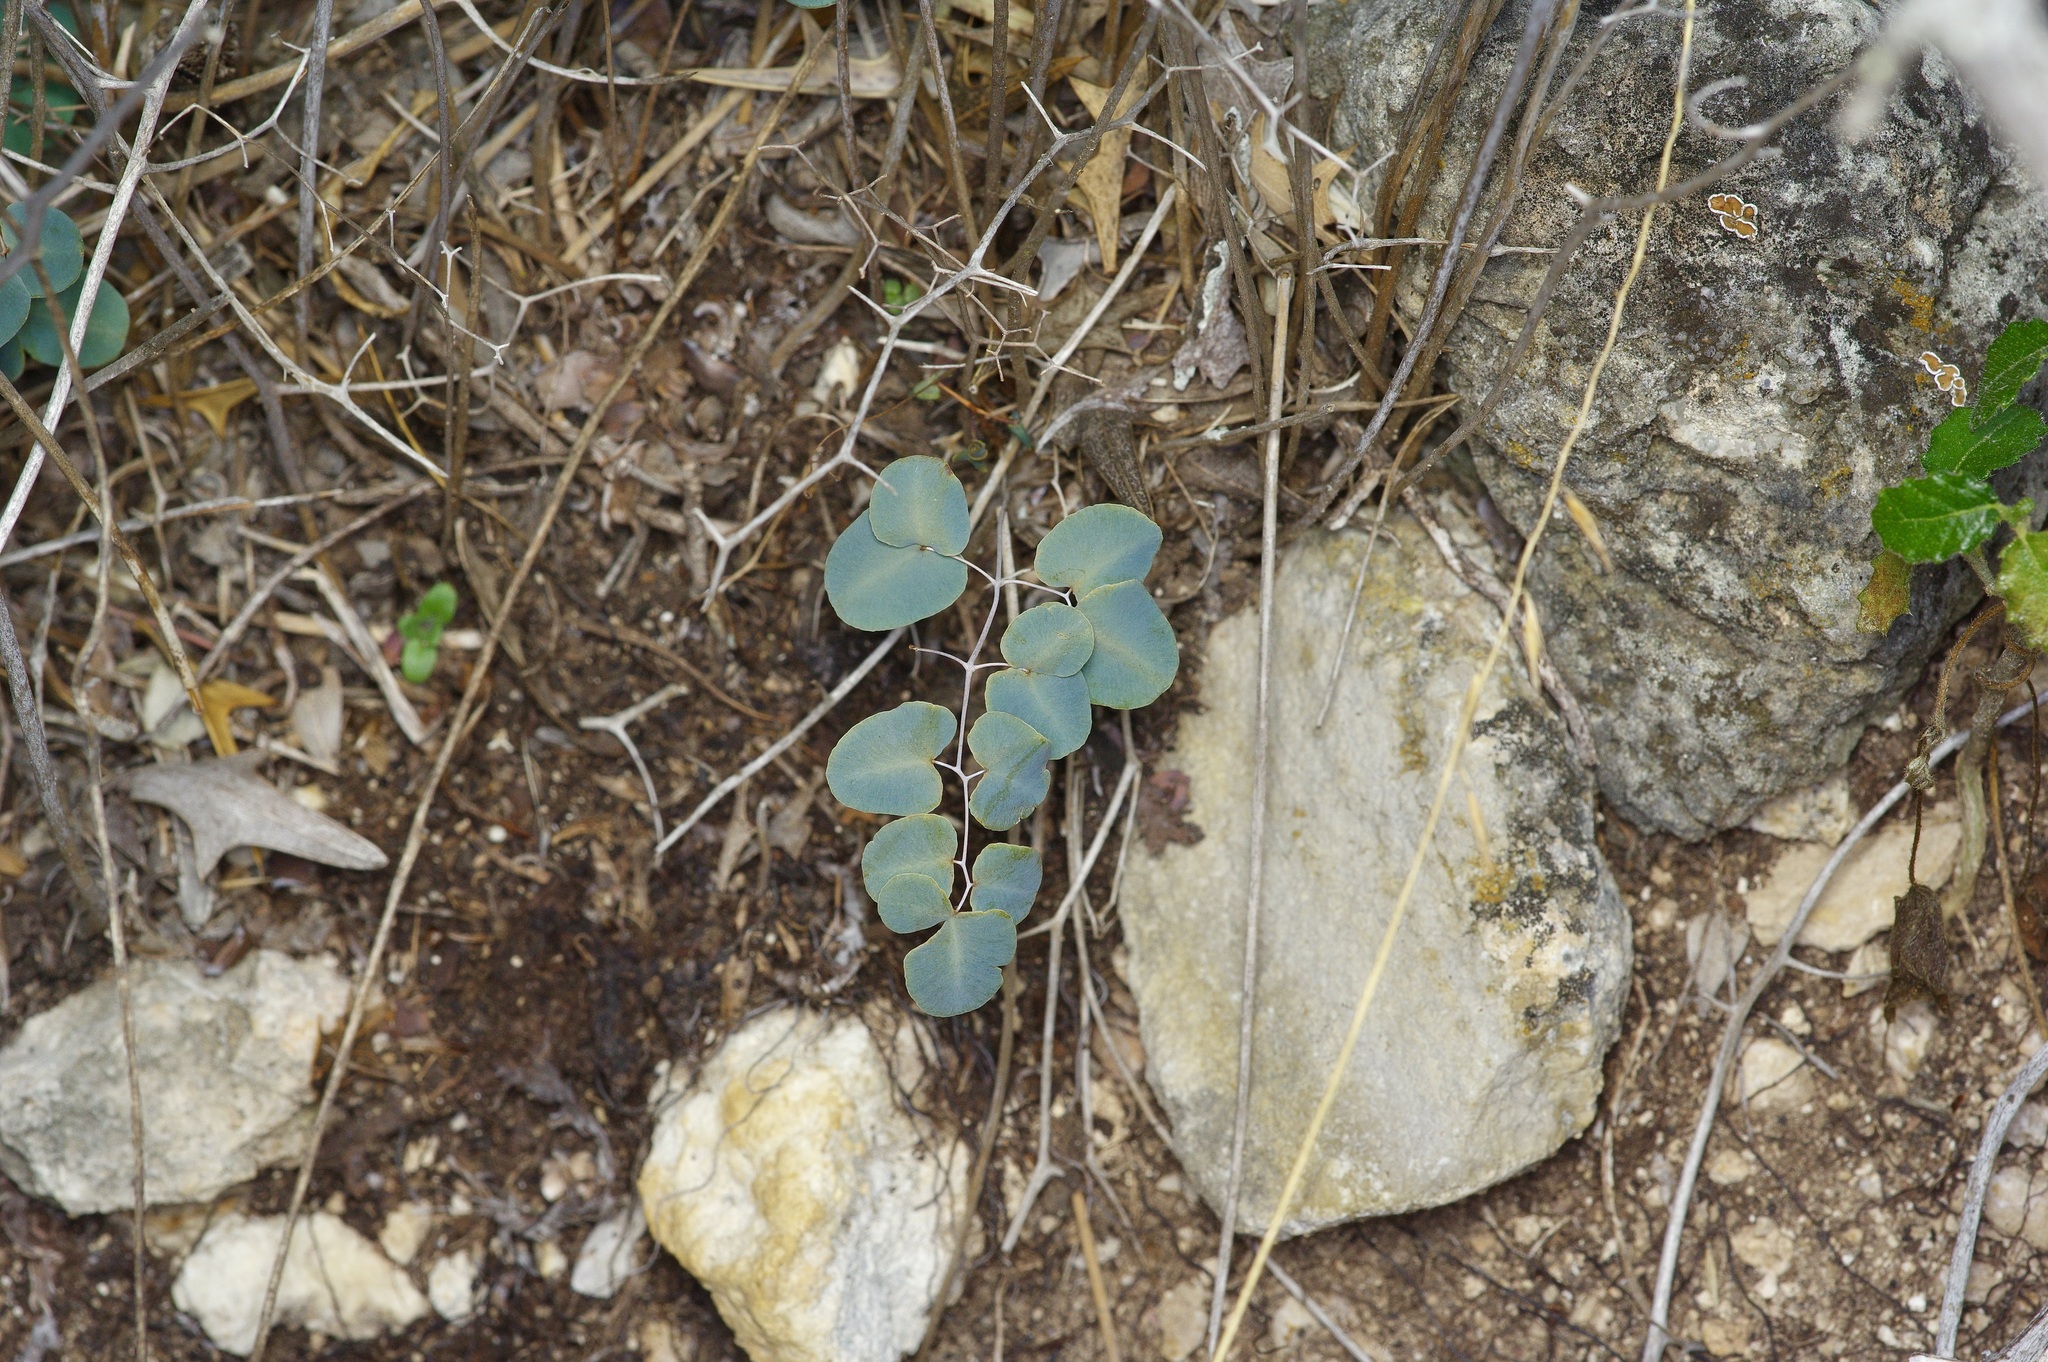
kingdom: Plantae
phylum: Tracheophyta
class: Polypodiopsida
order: Polypodiales
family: Pteridaceae
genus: Pellaea
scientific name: Pellaea ovata
